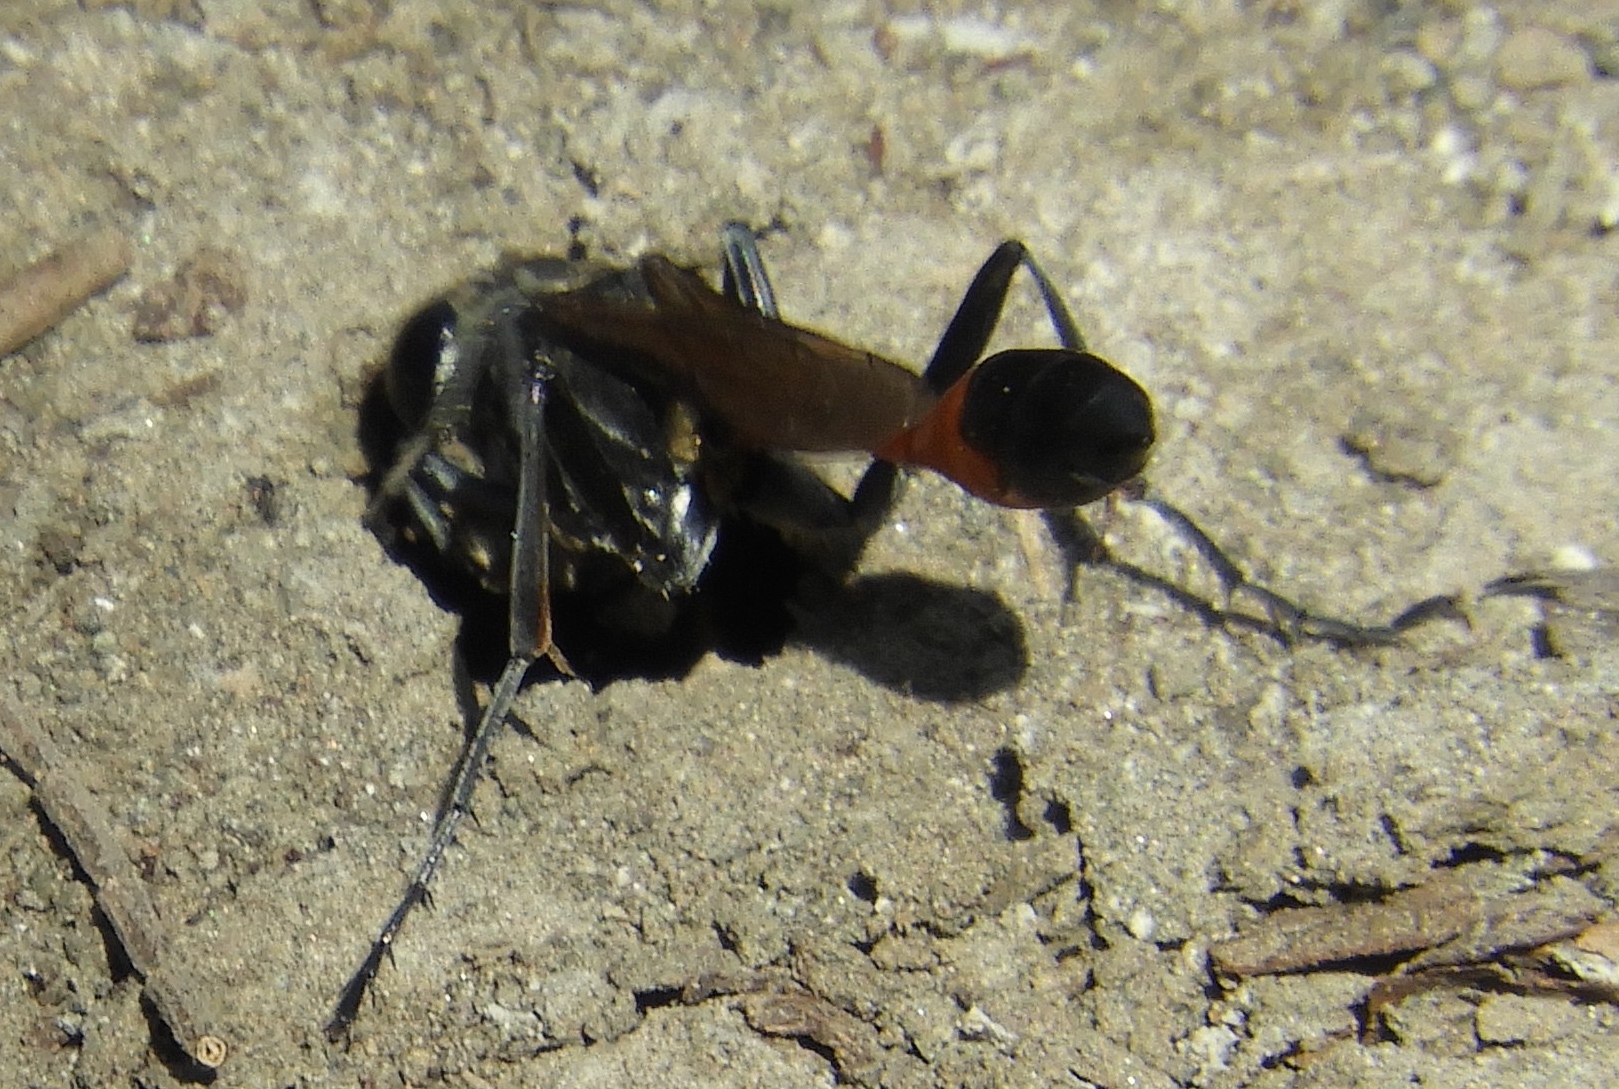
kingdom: Animalia
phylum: Arthropoda
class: Insecta
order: Hymenoptera
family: Sphecidae
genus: Ammophila
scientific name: Ammophila
